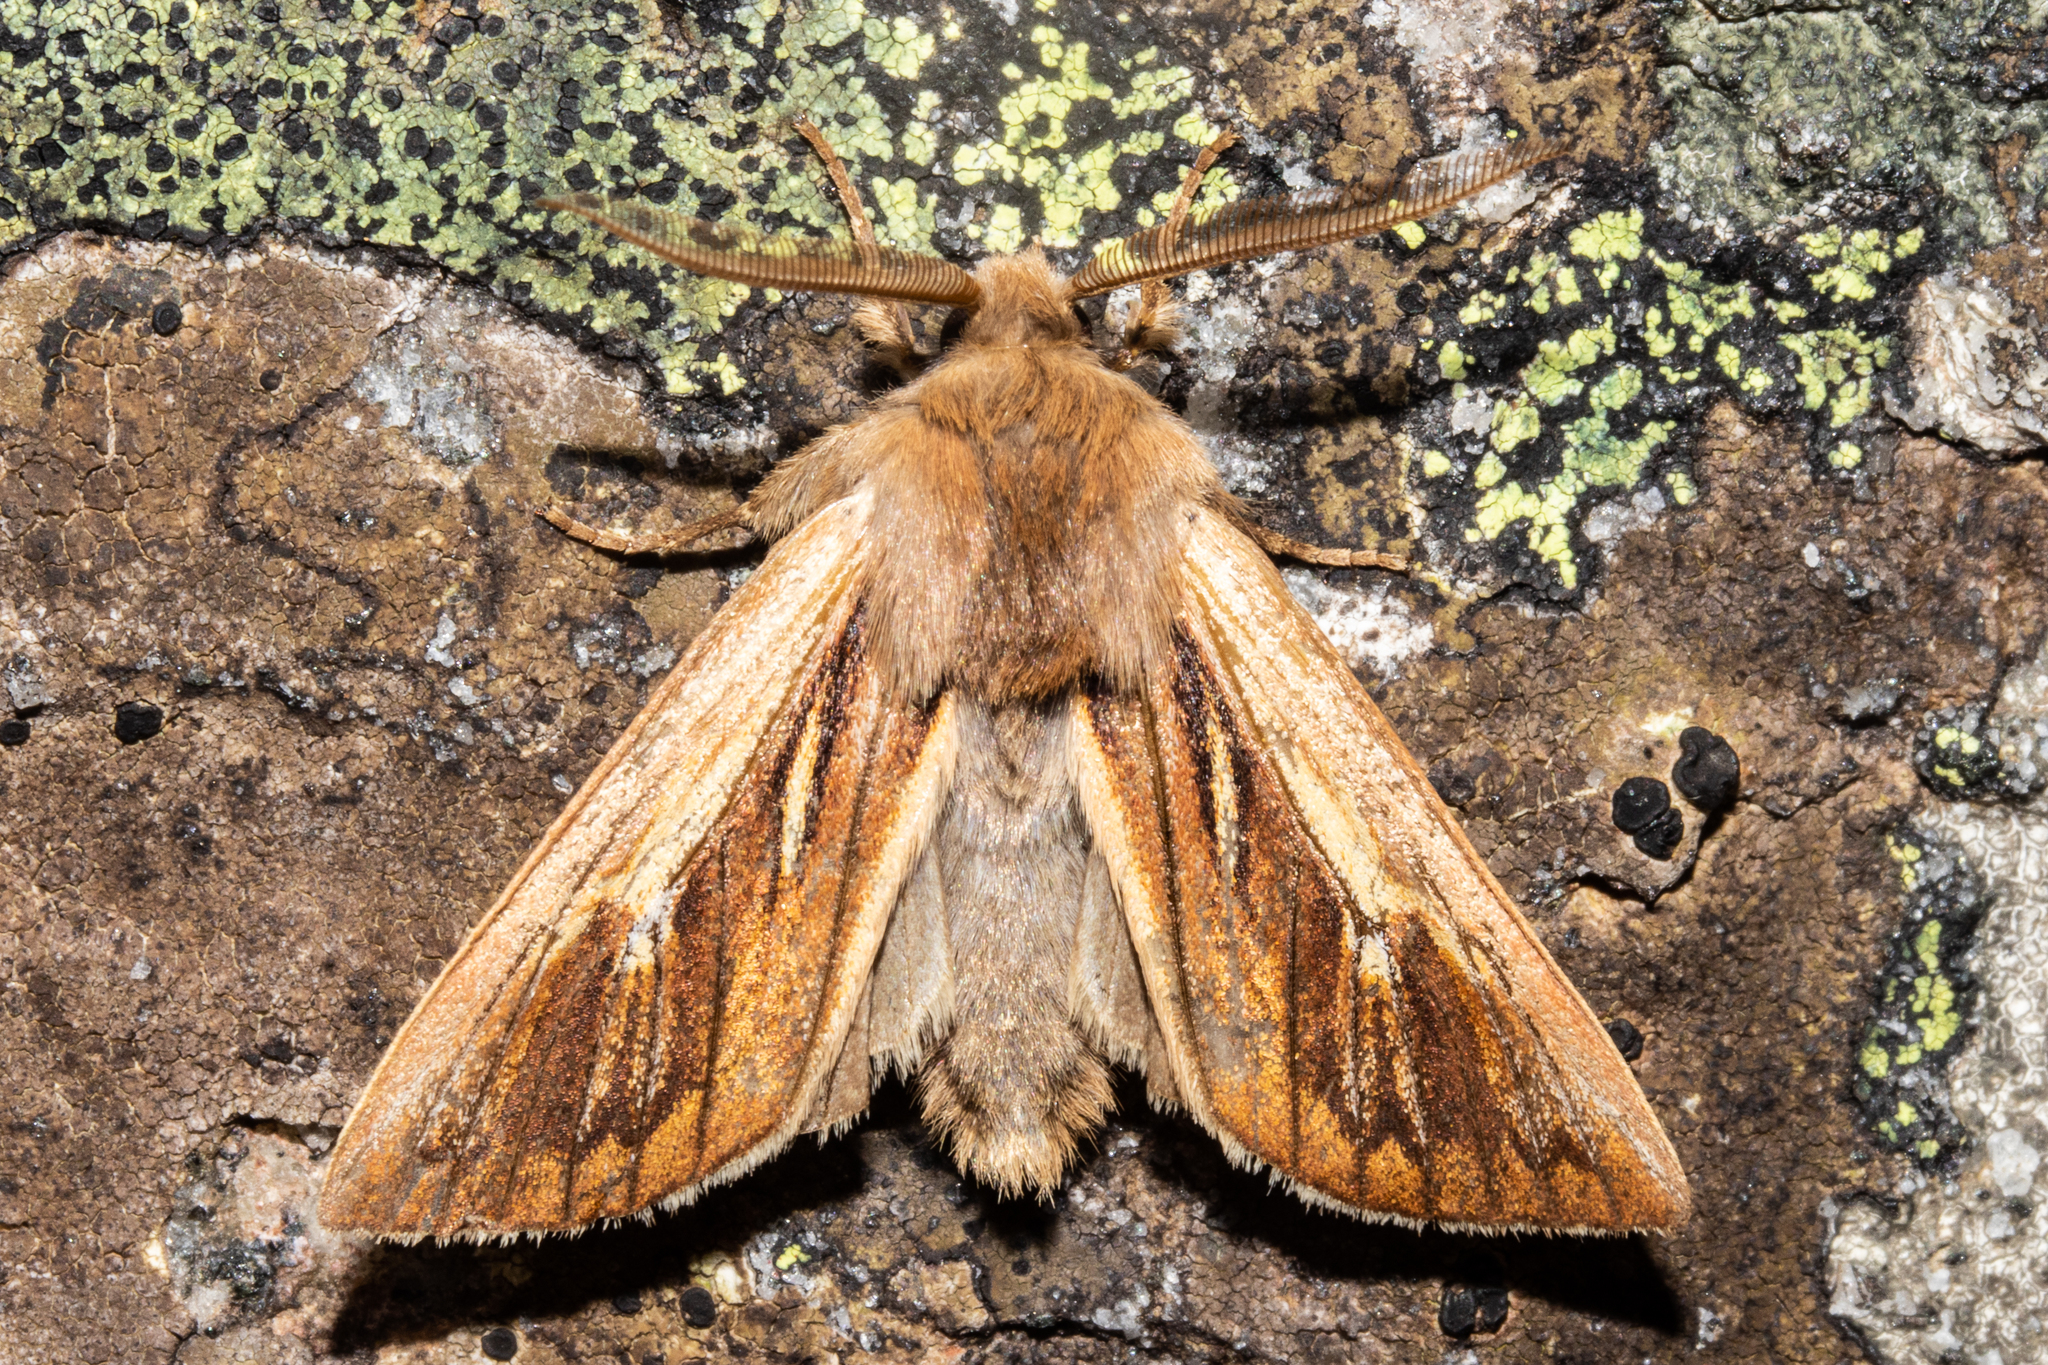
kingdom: Animalia
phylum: Arthropoda
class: Insecta
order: Lepidoptera
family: Noctuidae
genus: Ichneutica
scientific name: Ichneutica dione
